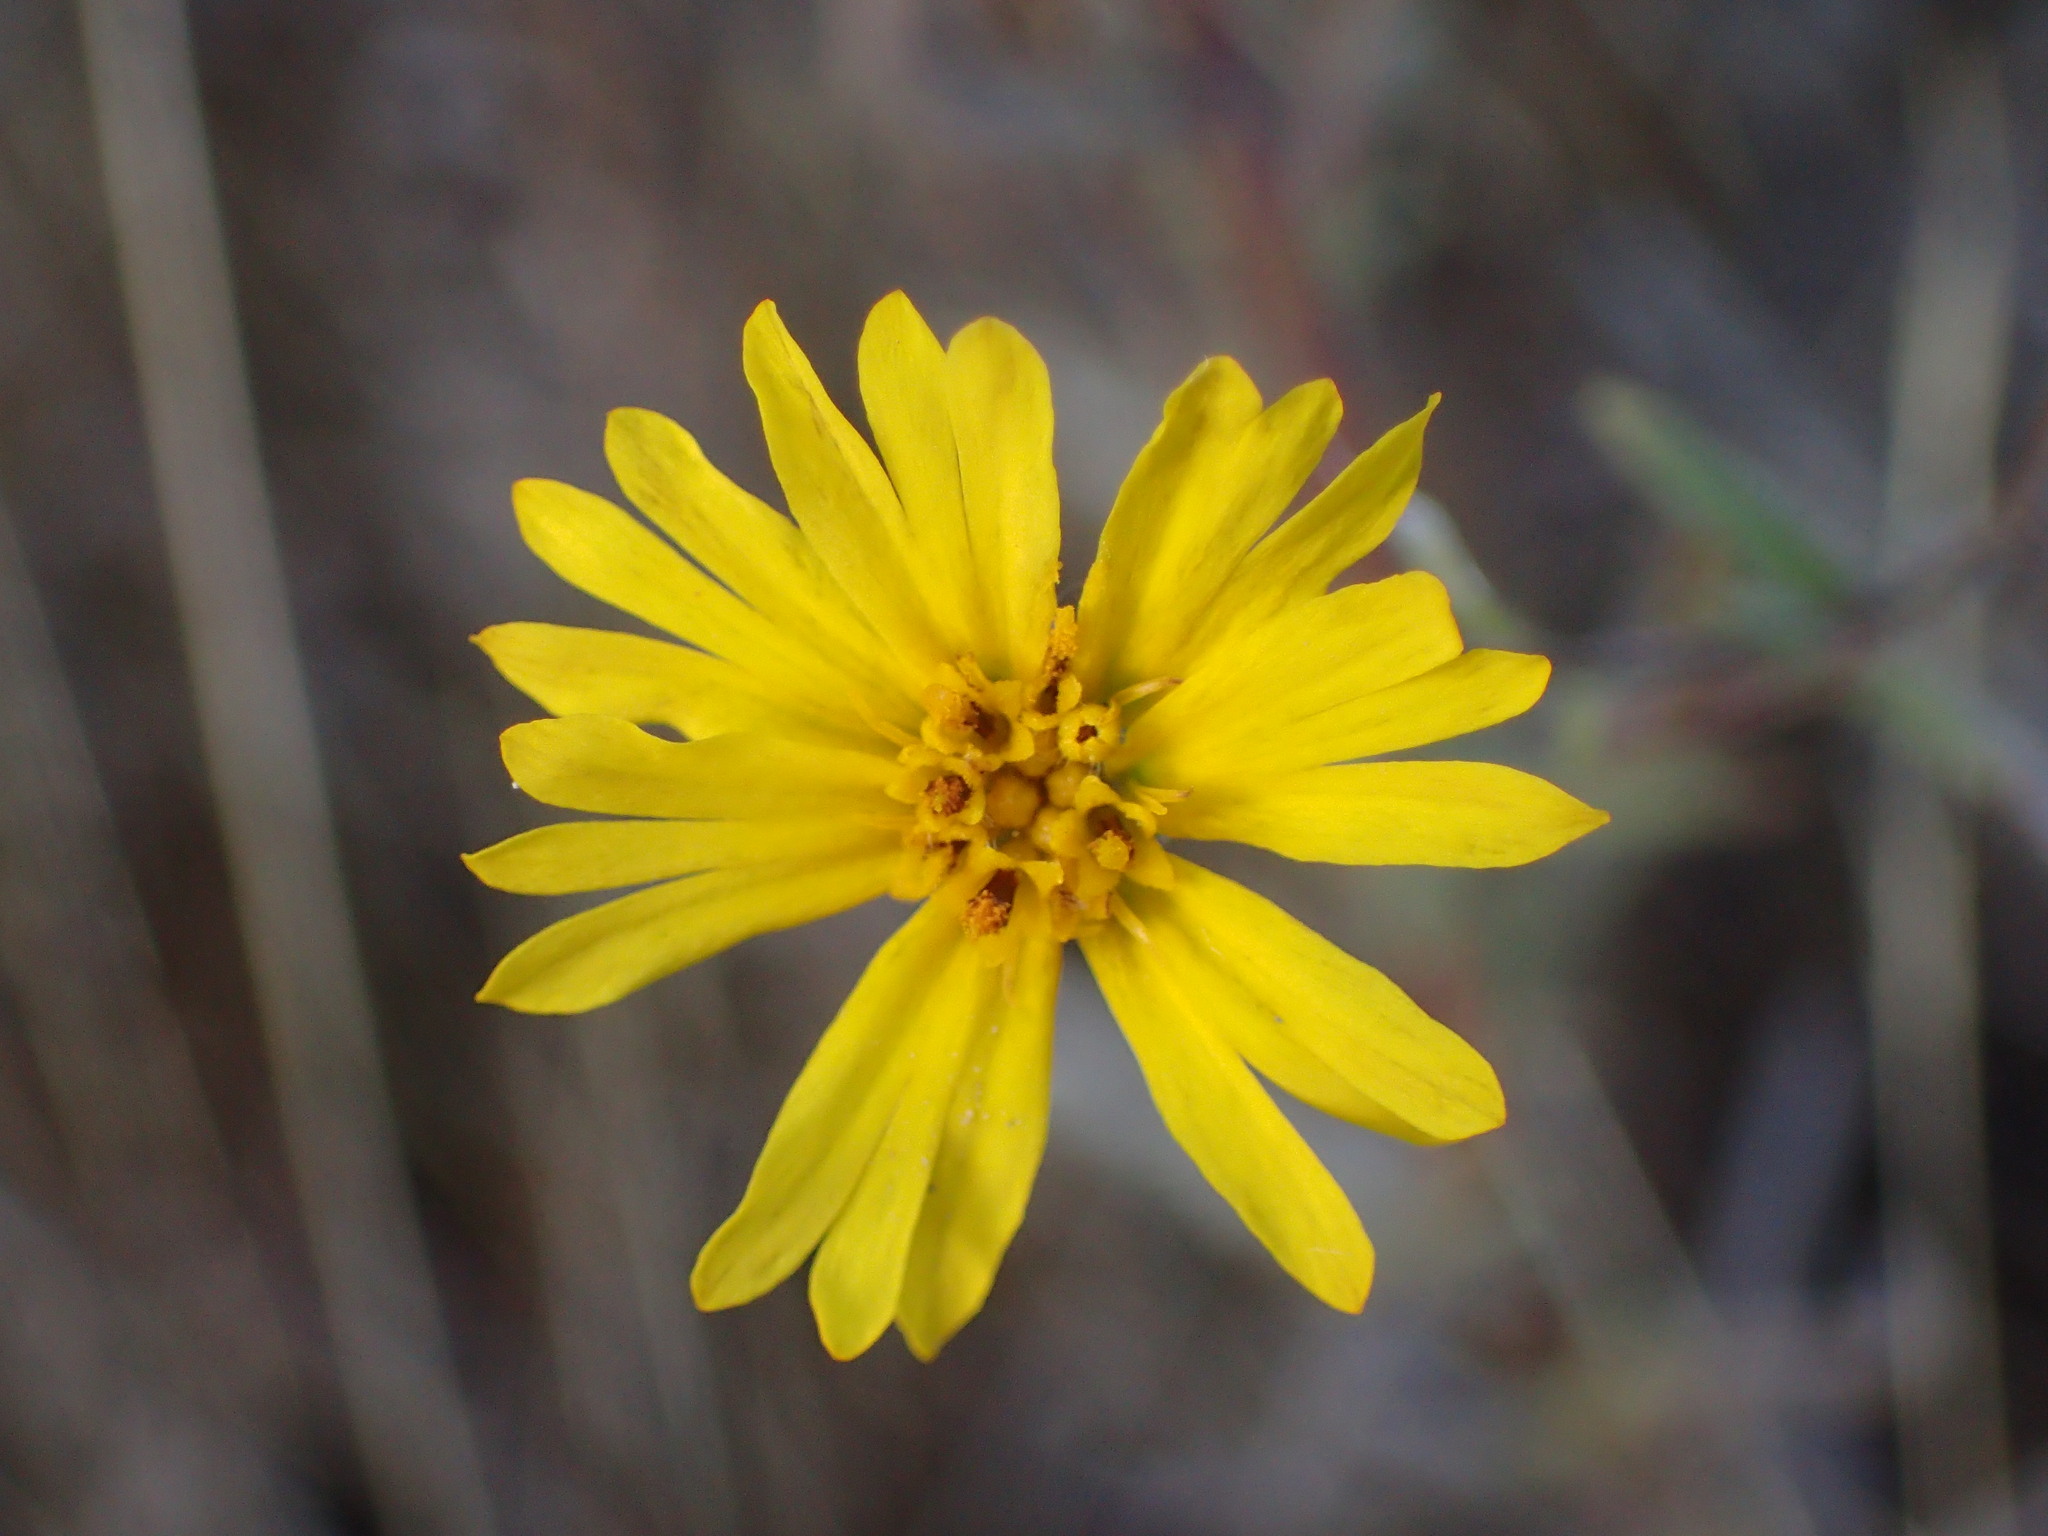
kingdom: Plantae
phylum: Tracheophyta
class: Magnoliopsida
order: Asterales
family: Asteraceae
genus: Madia
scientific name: Madia elegans
